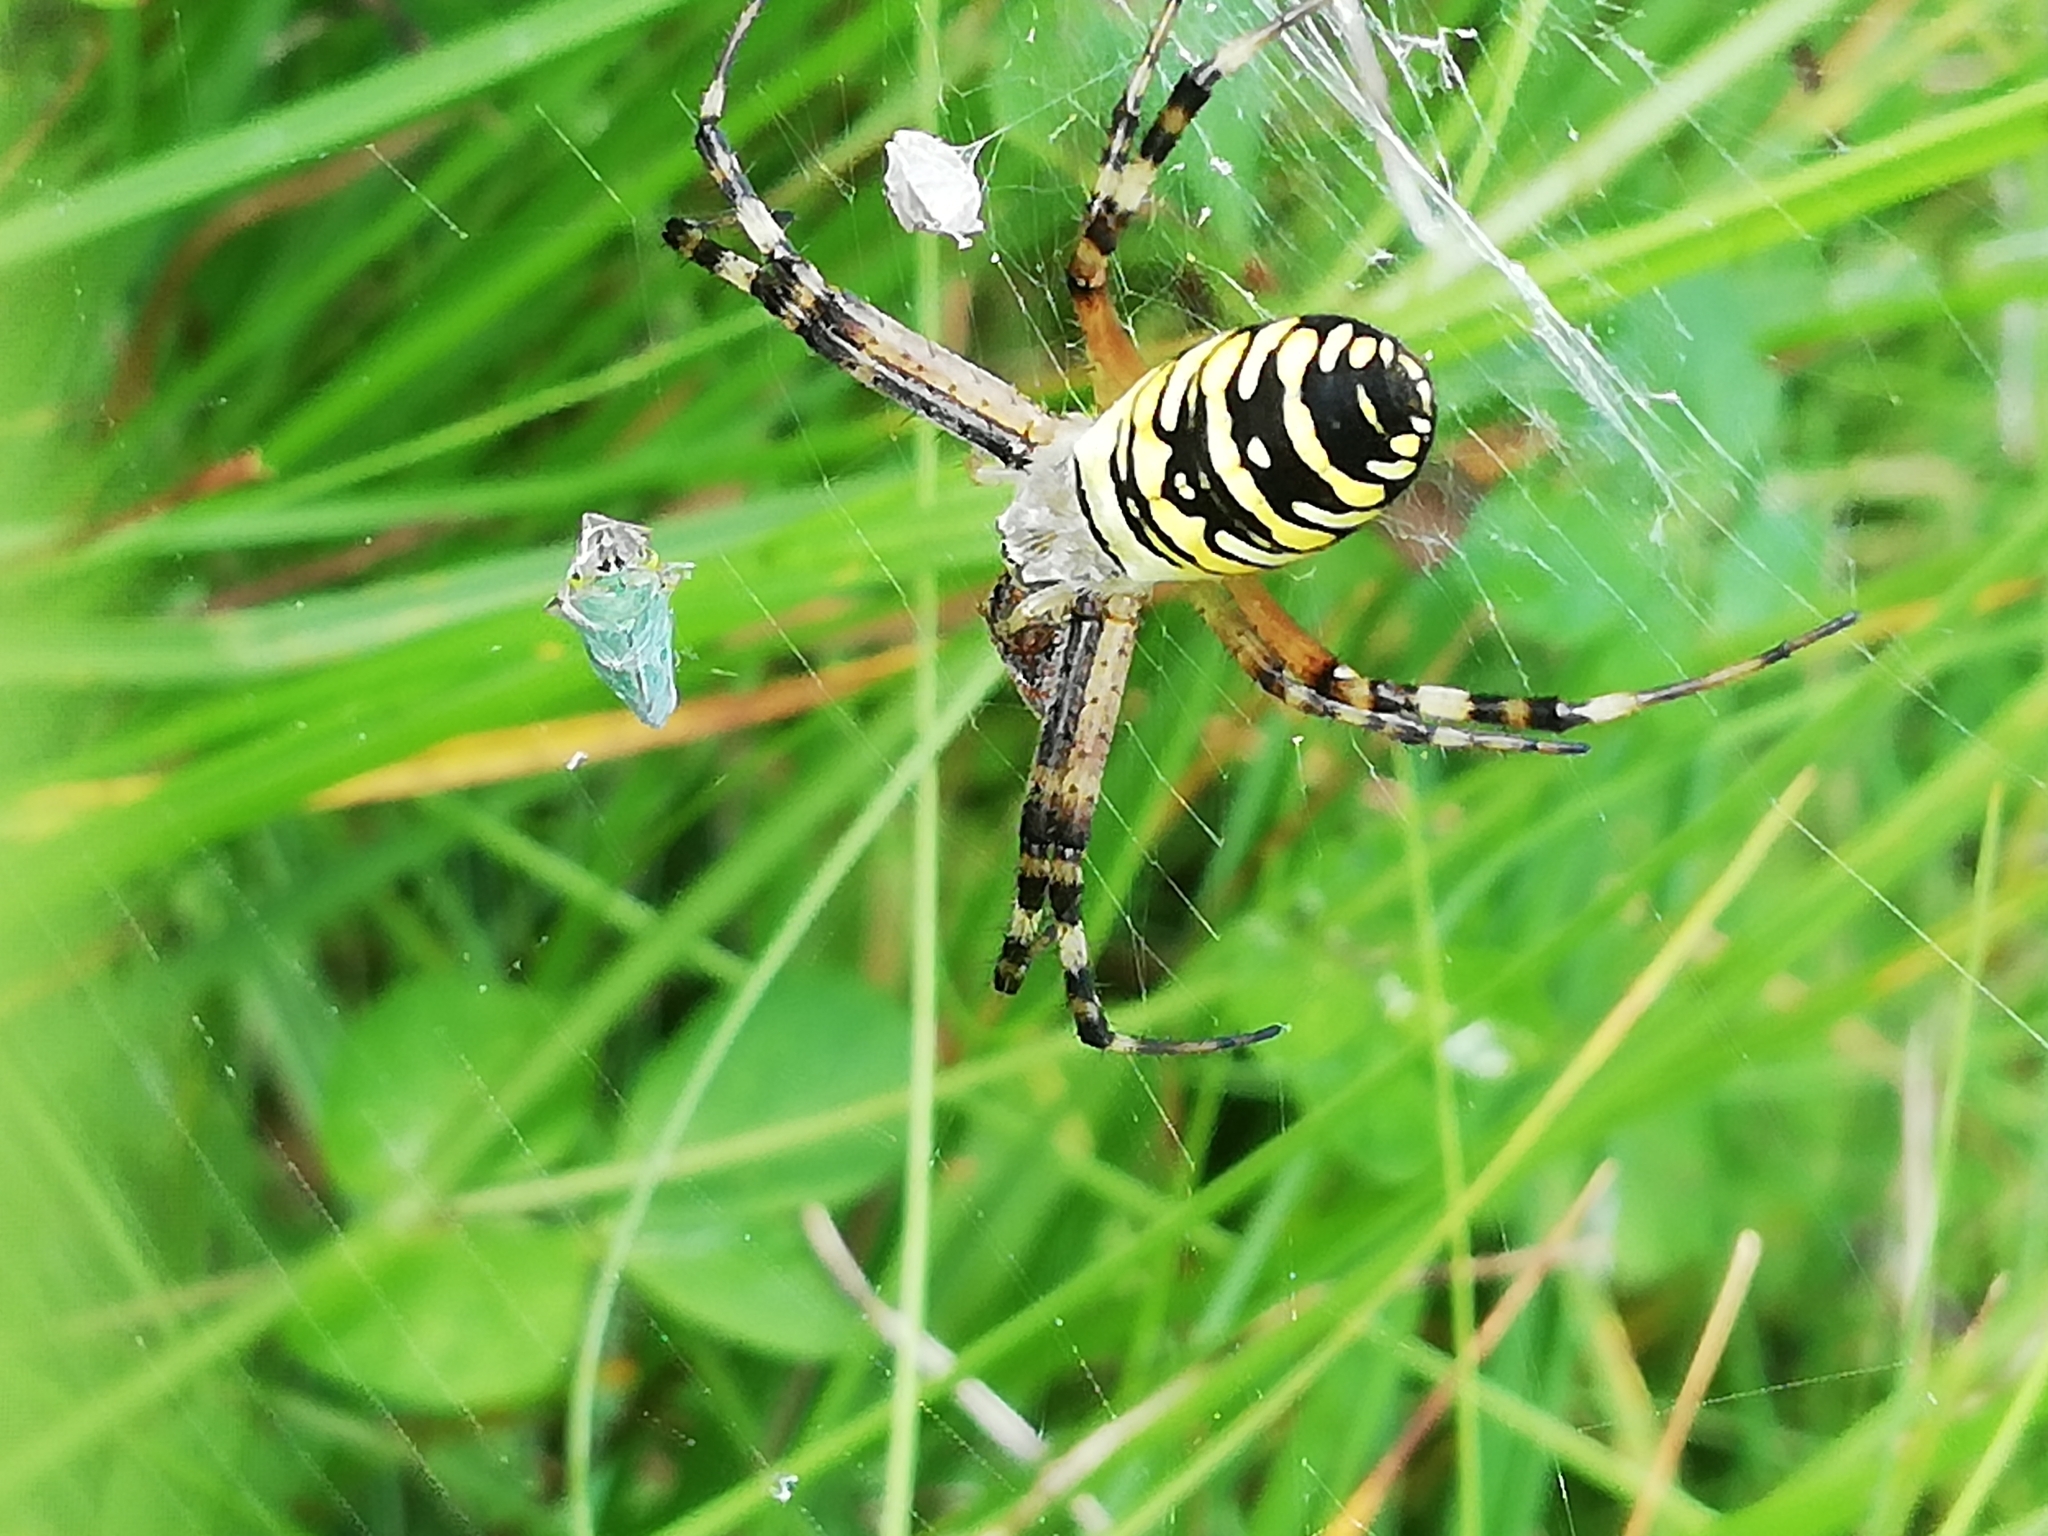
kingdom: Animalia
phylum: Arthropoda
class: Arachnida
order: Araneae
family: Araneidae
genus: Argiope
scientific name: Argiope bruennichi
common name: Wasp spider
